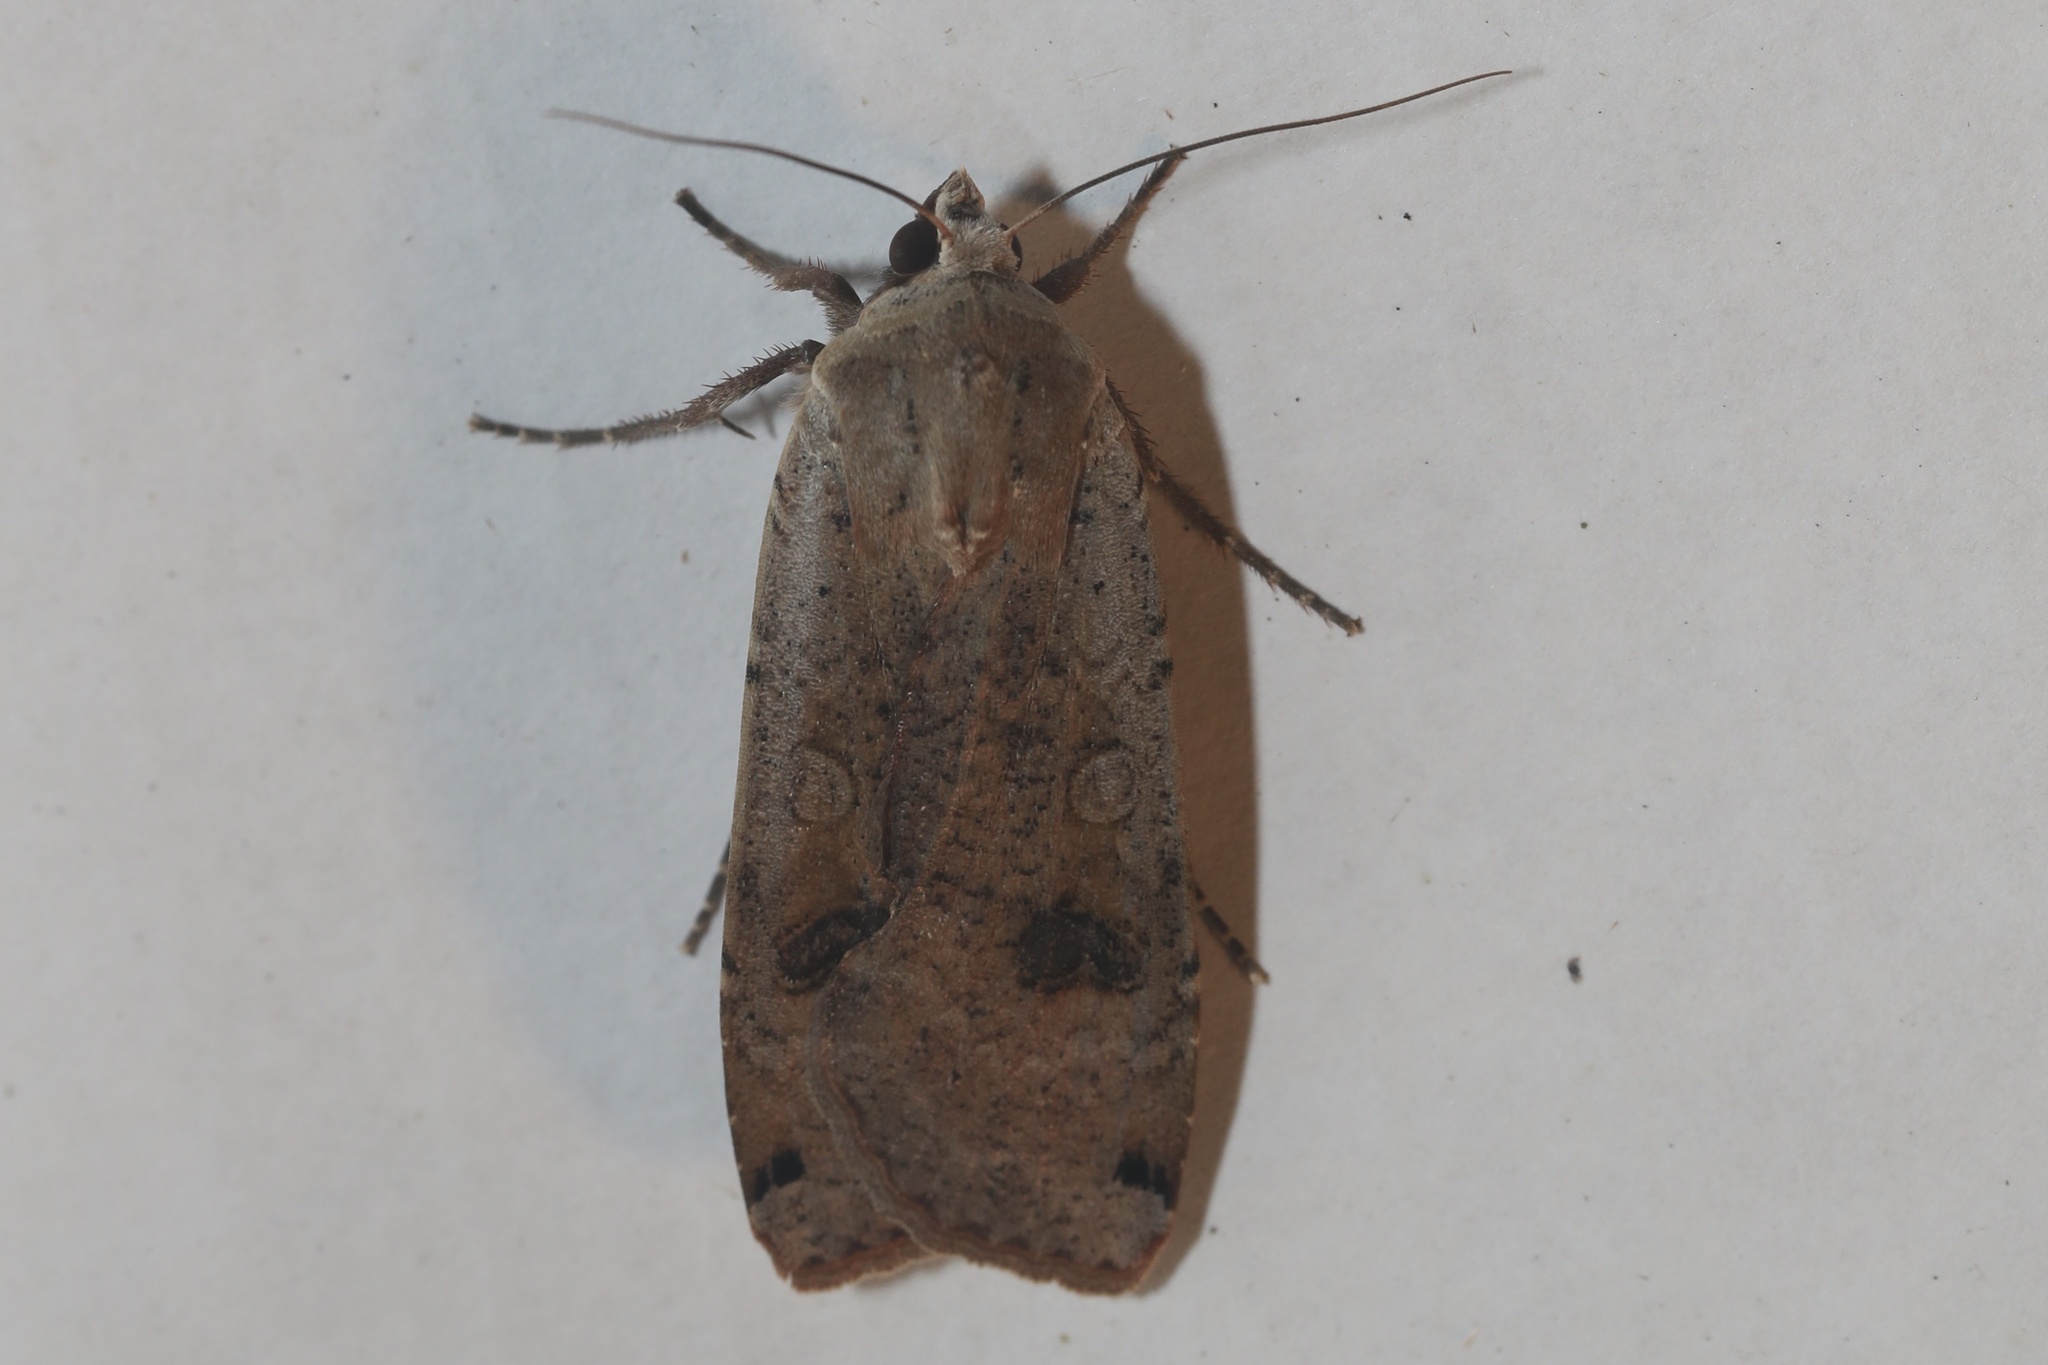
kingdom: Animalia
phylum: Arthropoda
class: Insecta
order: Lepidoptera
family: Noctuidae
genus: Noctua
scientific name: Noctua pronuba
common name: Large yellow underwing
